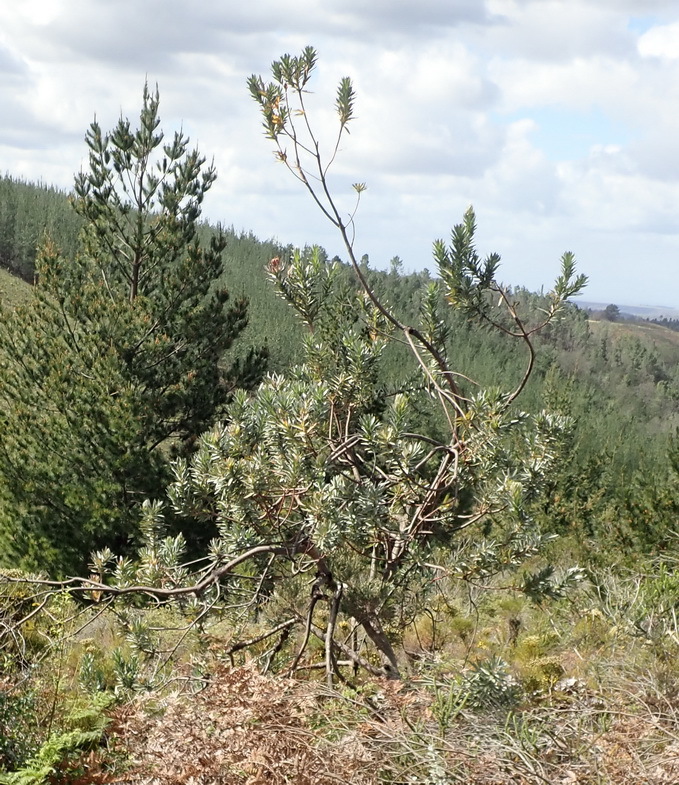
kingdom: Plantae
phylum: Tracheophyta
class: Magnoliopsida
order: Proteales
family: Proteaceae
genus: Protea
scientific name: Protea coronata
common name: Green sugarbush
